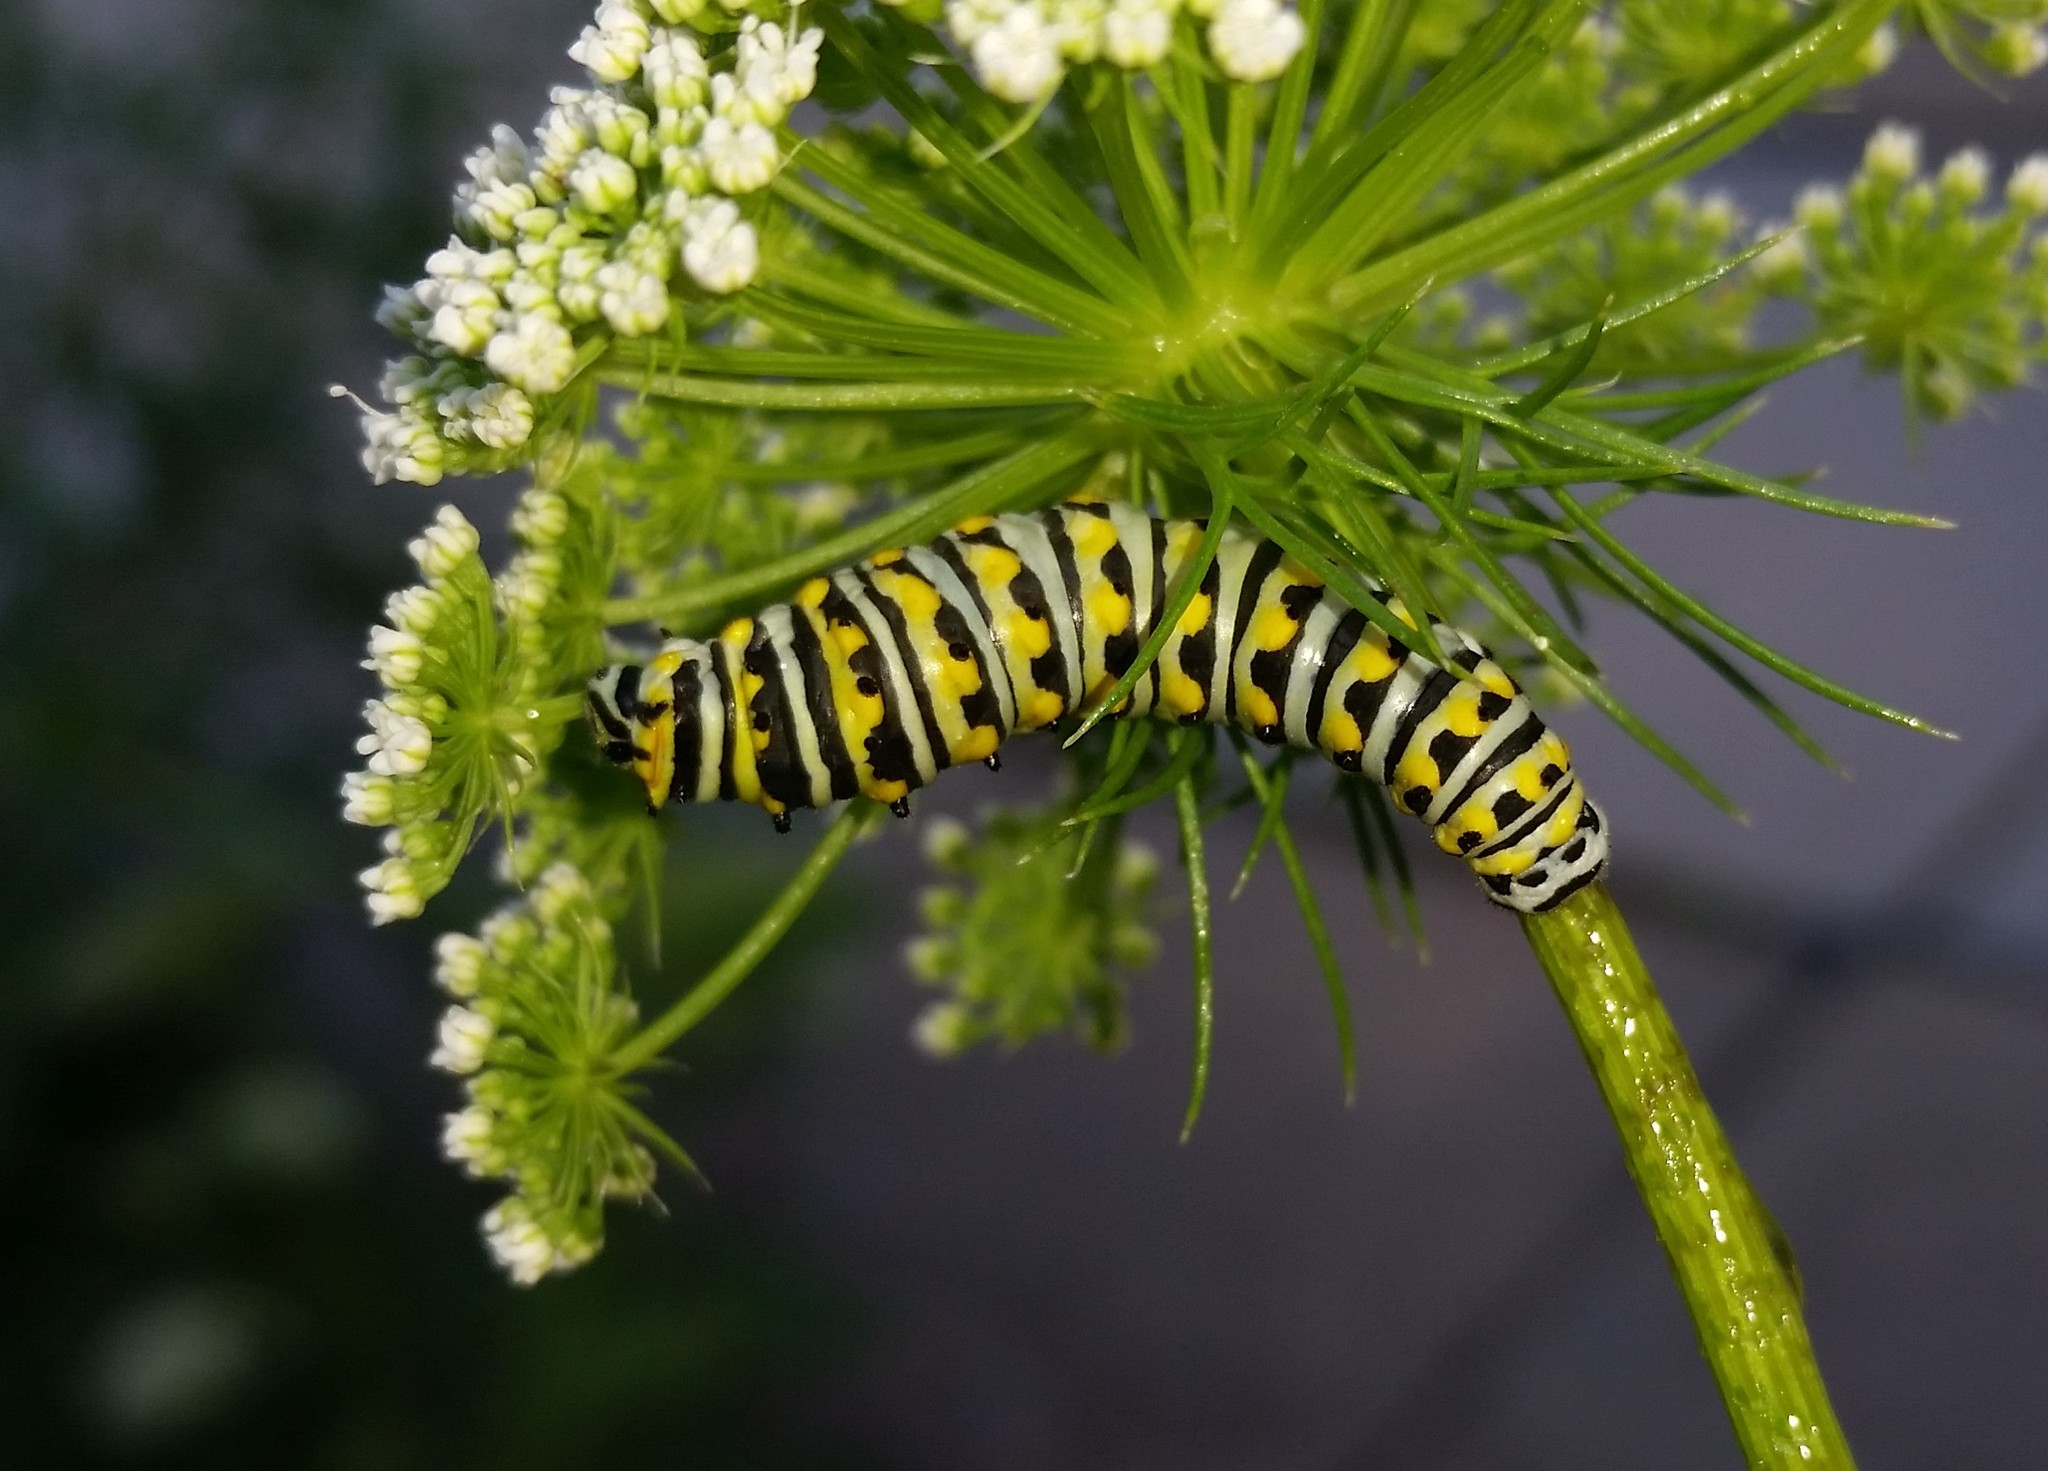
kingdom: Animalia
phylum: Arthropoda
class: Insecta
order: Lepidoptera
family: Papilionidae
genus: Papilio
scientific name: Papilio polyxenes
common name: Black swallowtail
